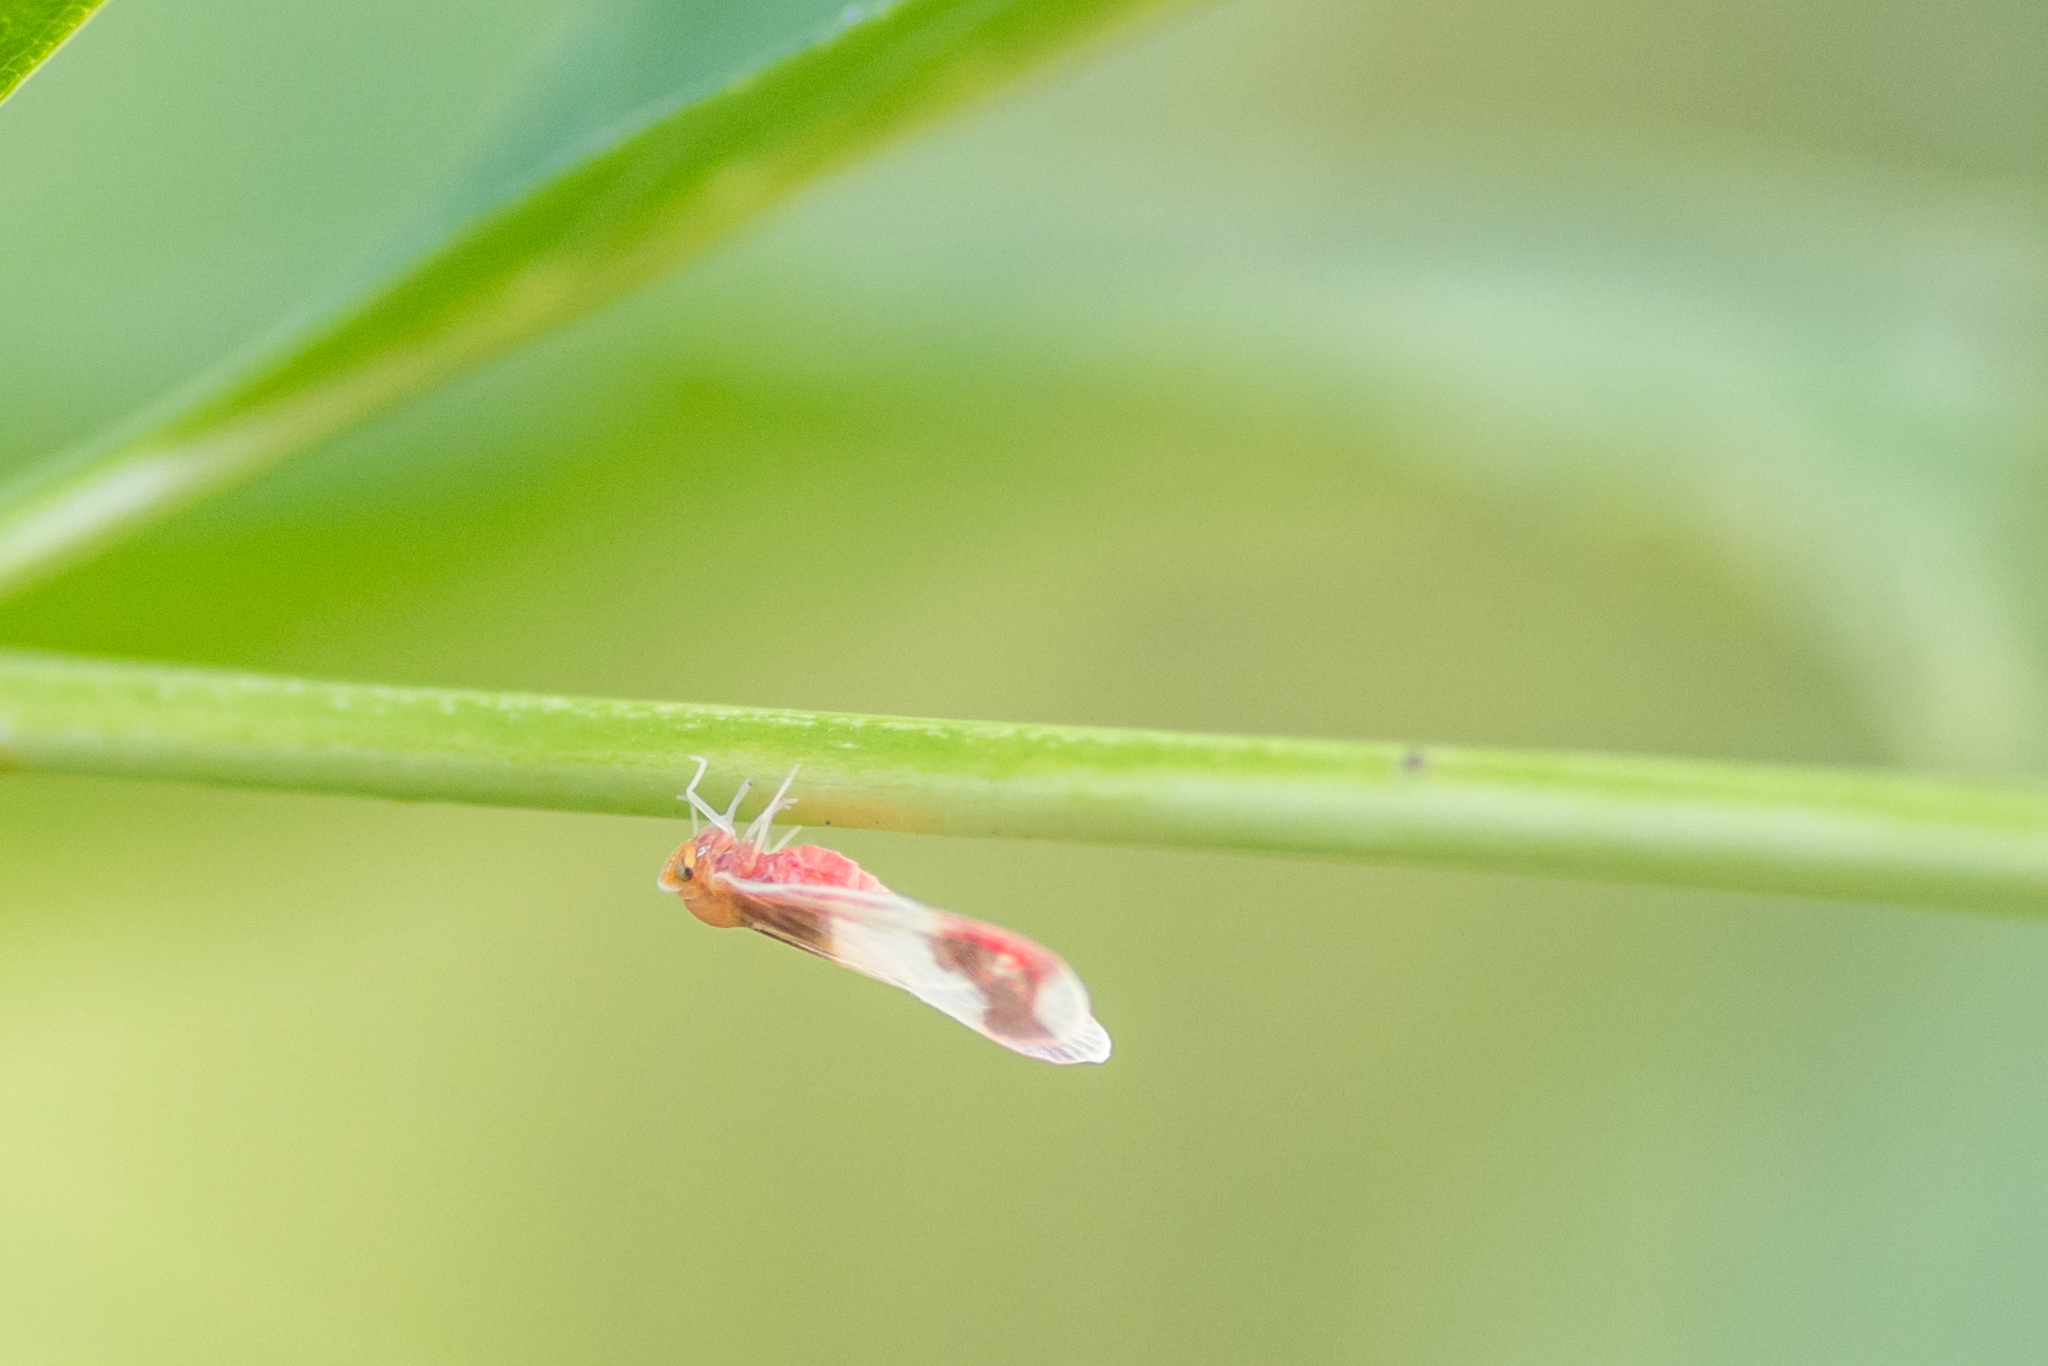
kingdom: Animalia
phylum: Arthropoda
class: Insecta
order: Hemiptera
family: Derbidae
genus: Anotia
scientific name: Anotia uhleri
